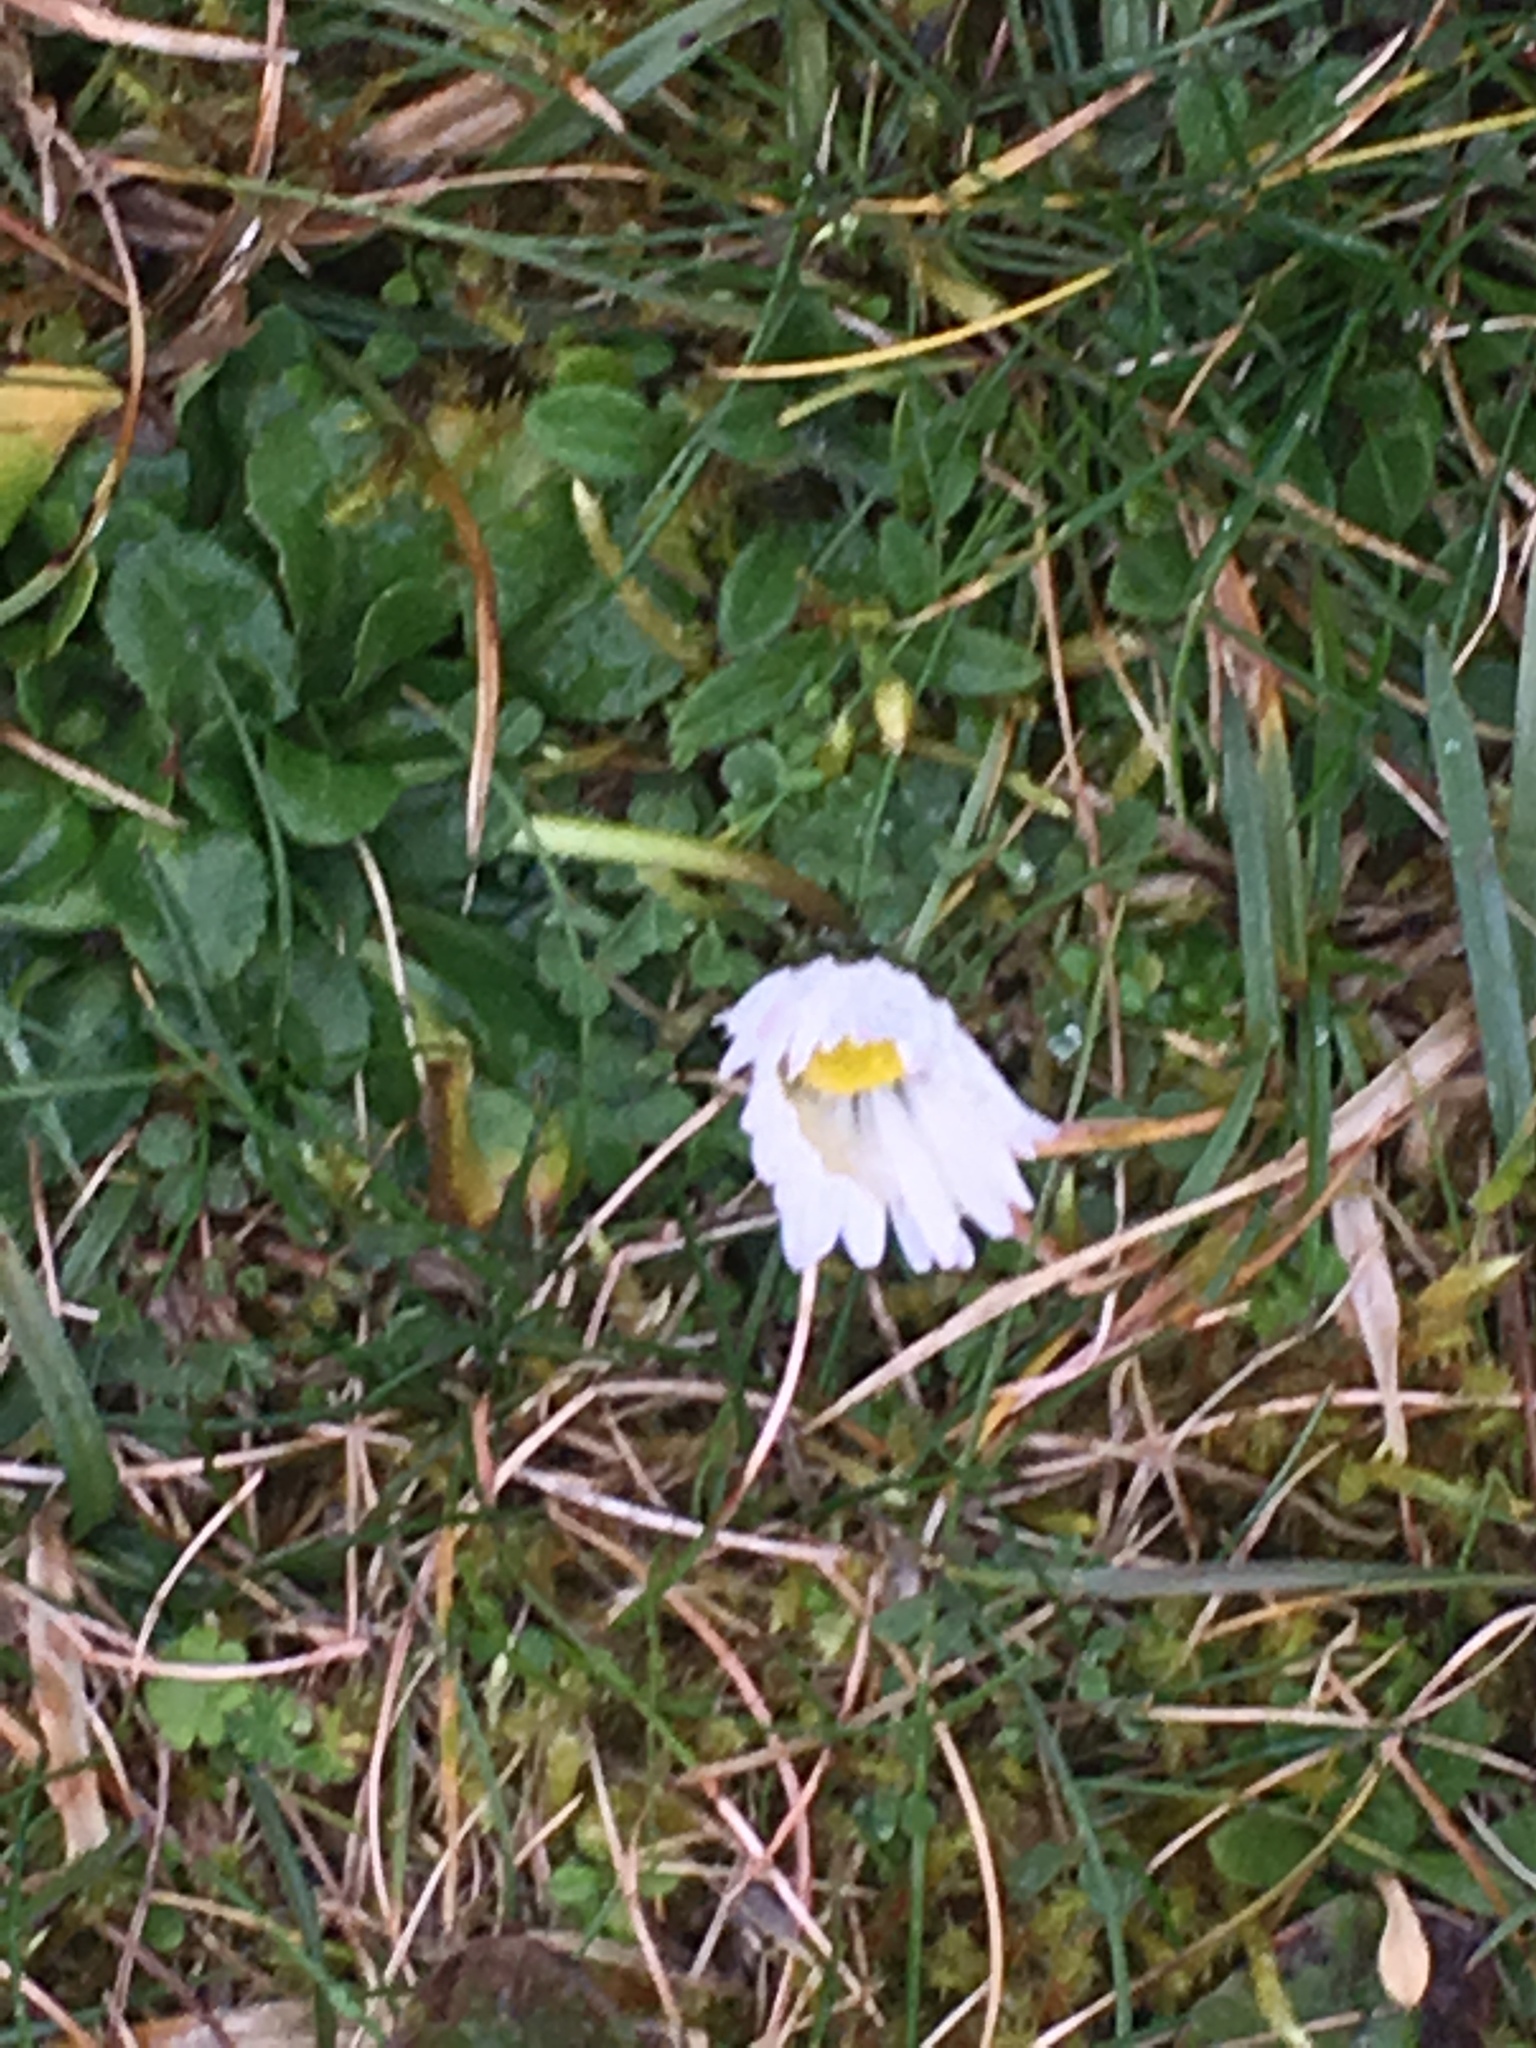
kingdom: Plantae
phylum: Tracheophyta
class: Magnoliopsida
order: Asterales
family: Asteraceae
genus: Bellis
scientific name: Bellis perennis
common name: Lawndaisy
